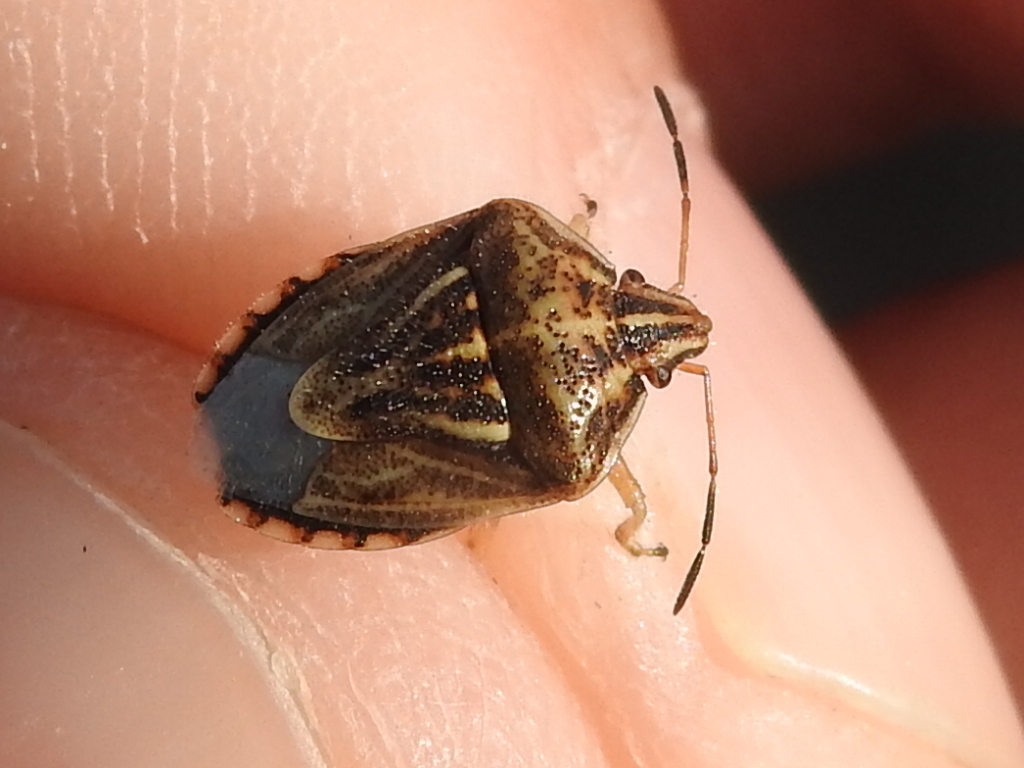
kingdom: Animalia
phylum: Arthropoda
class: Insecta
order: Hemiptera
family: Pentatomidae
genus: Trichopepla
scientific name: Trichopepla semivittata
